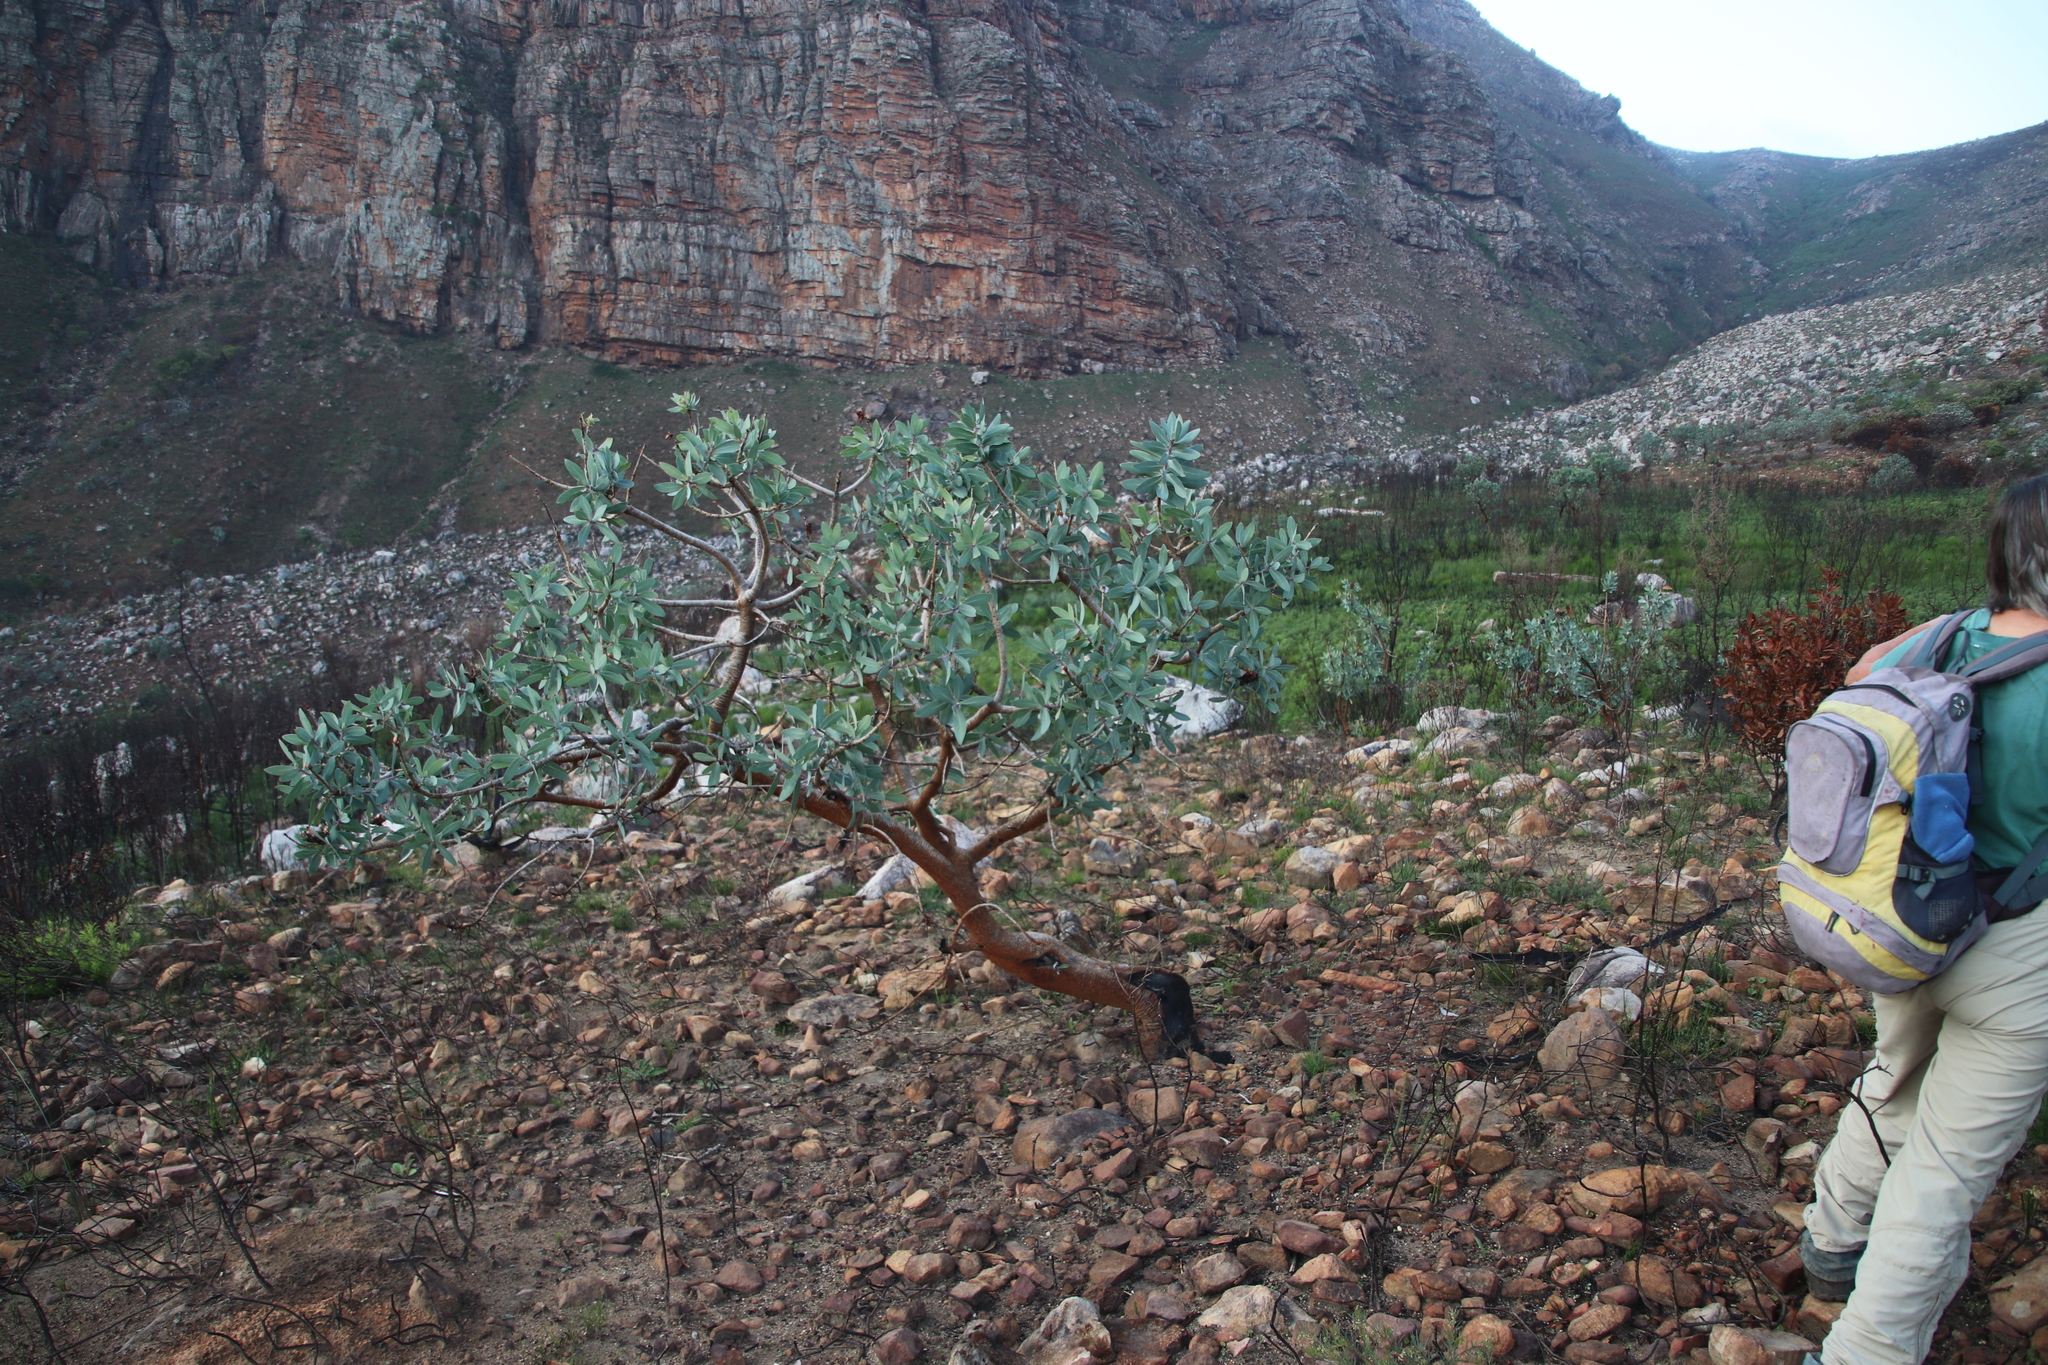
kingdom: Plantae
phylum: Tracheophyta
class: Magnoliopsida
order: Proteales
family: Proteaceae
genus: Protea
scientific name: Protea nitida
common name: Tree protea
